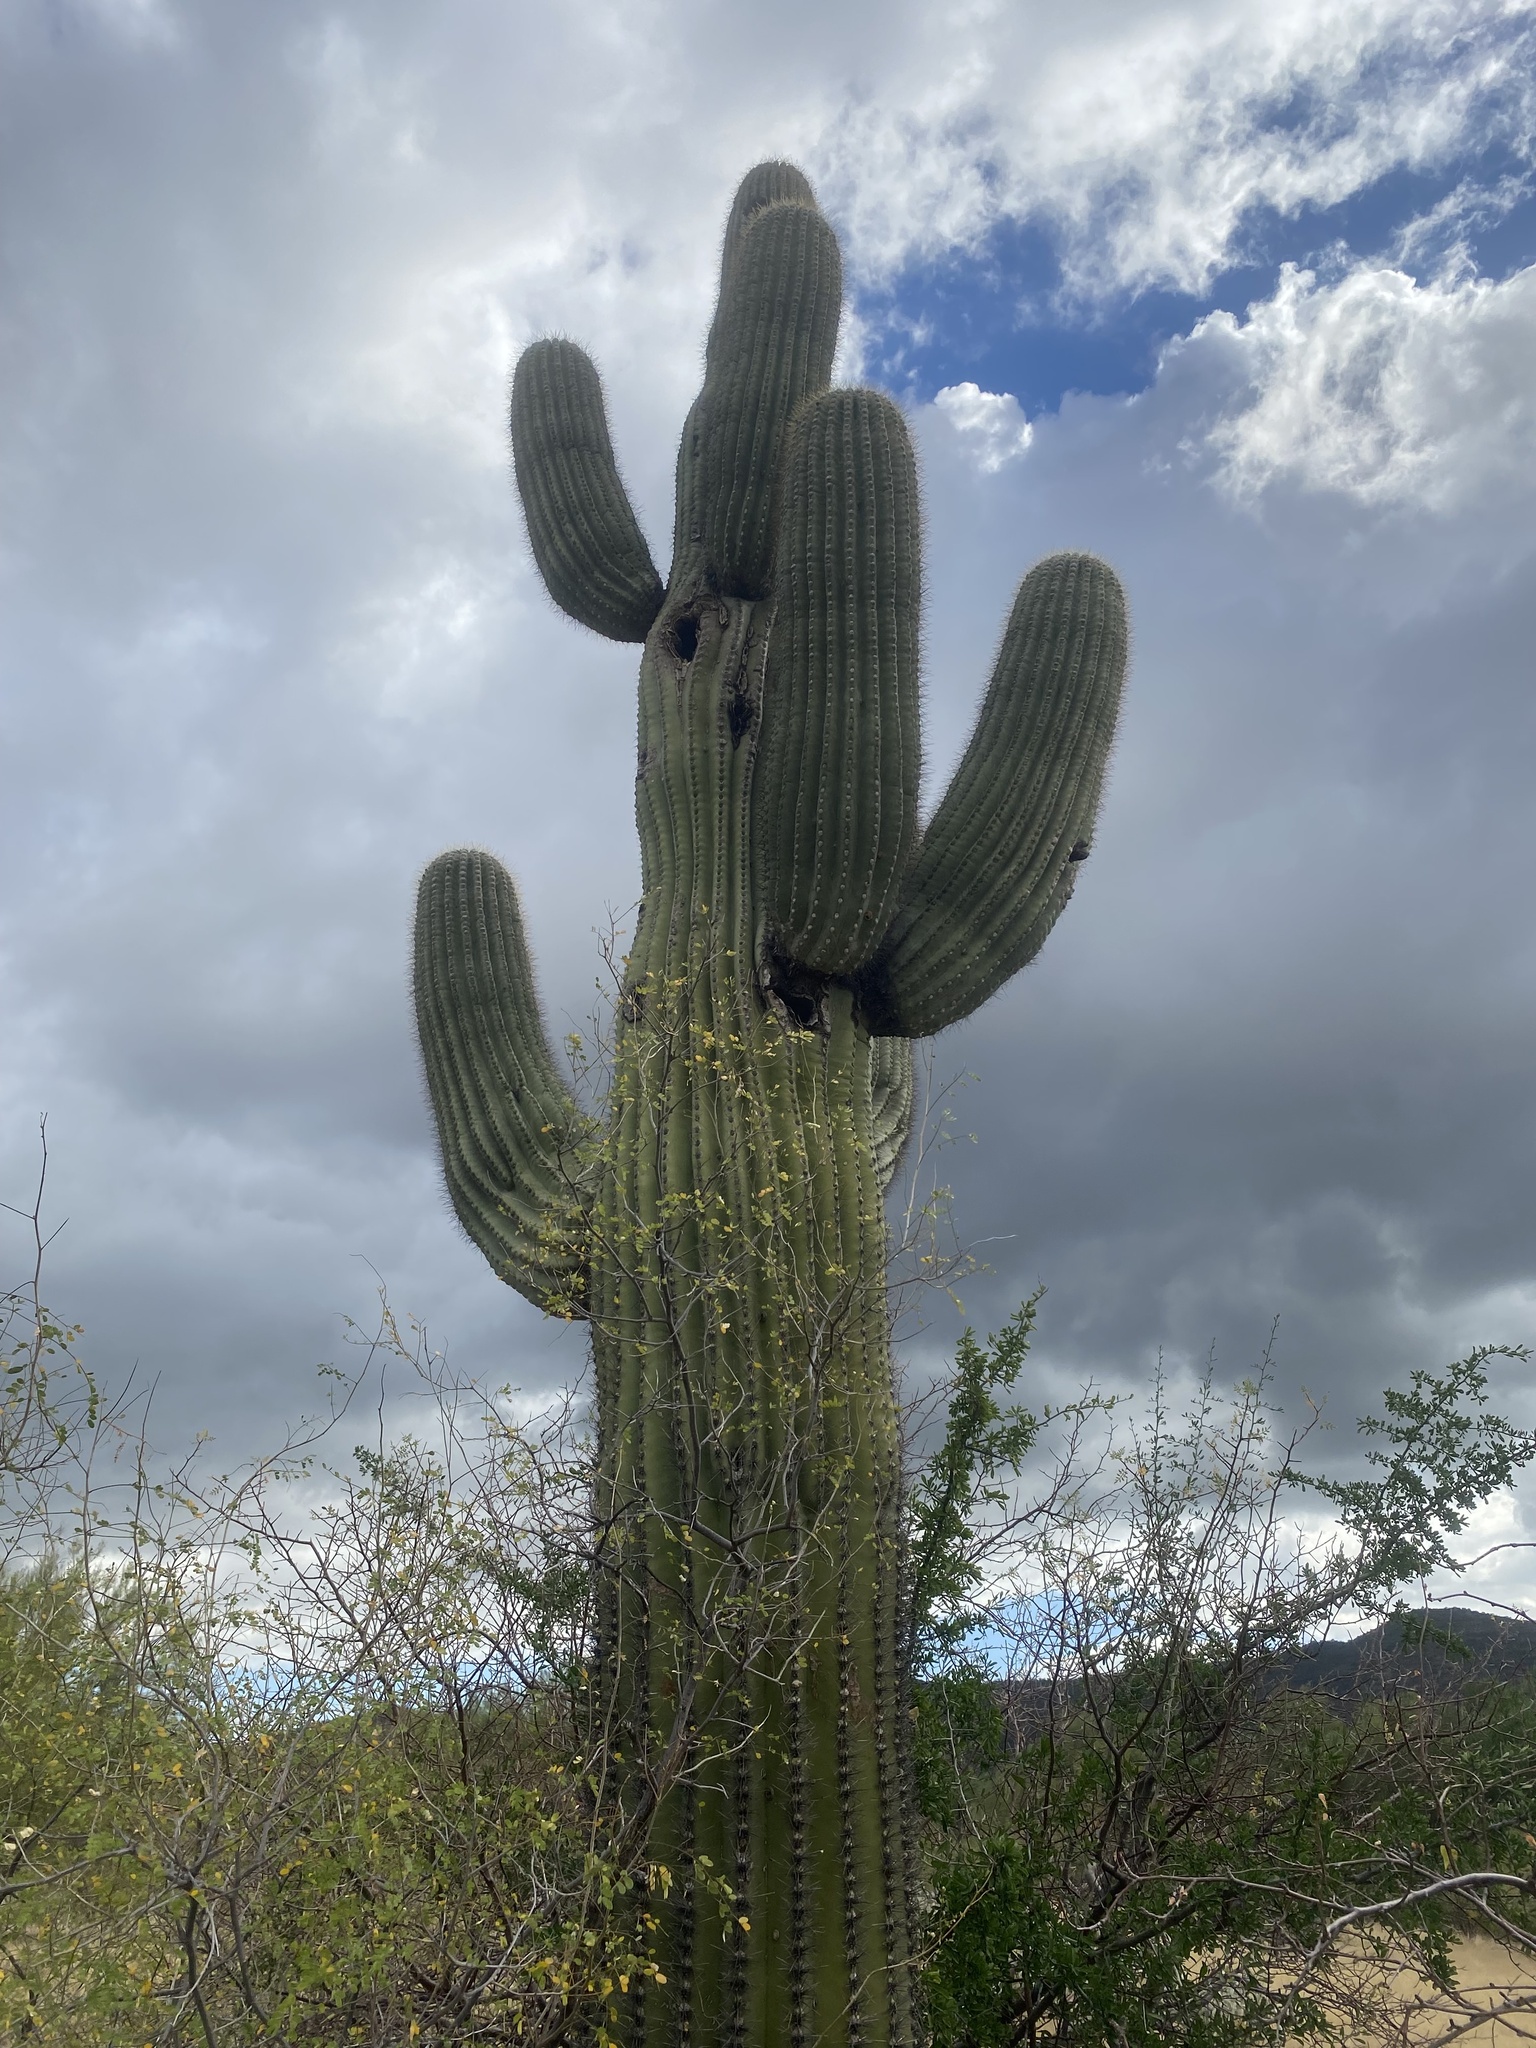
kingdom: Plantae
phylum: Tracheophyta
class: Magnoliopsida
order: Caryophyllales
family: Cactaceae
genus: Carnegiea
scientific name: Carnegiea gigantea
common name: Saguaro
